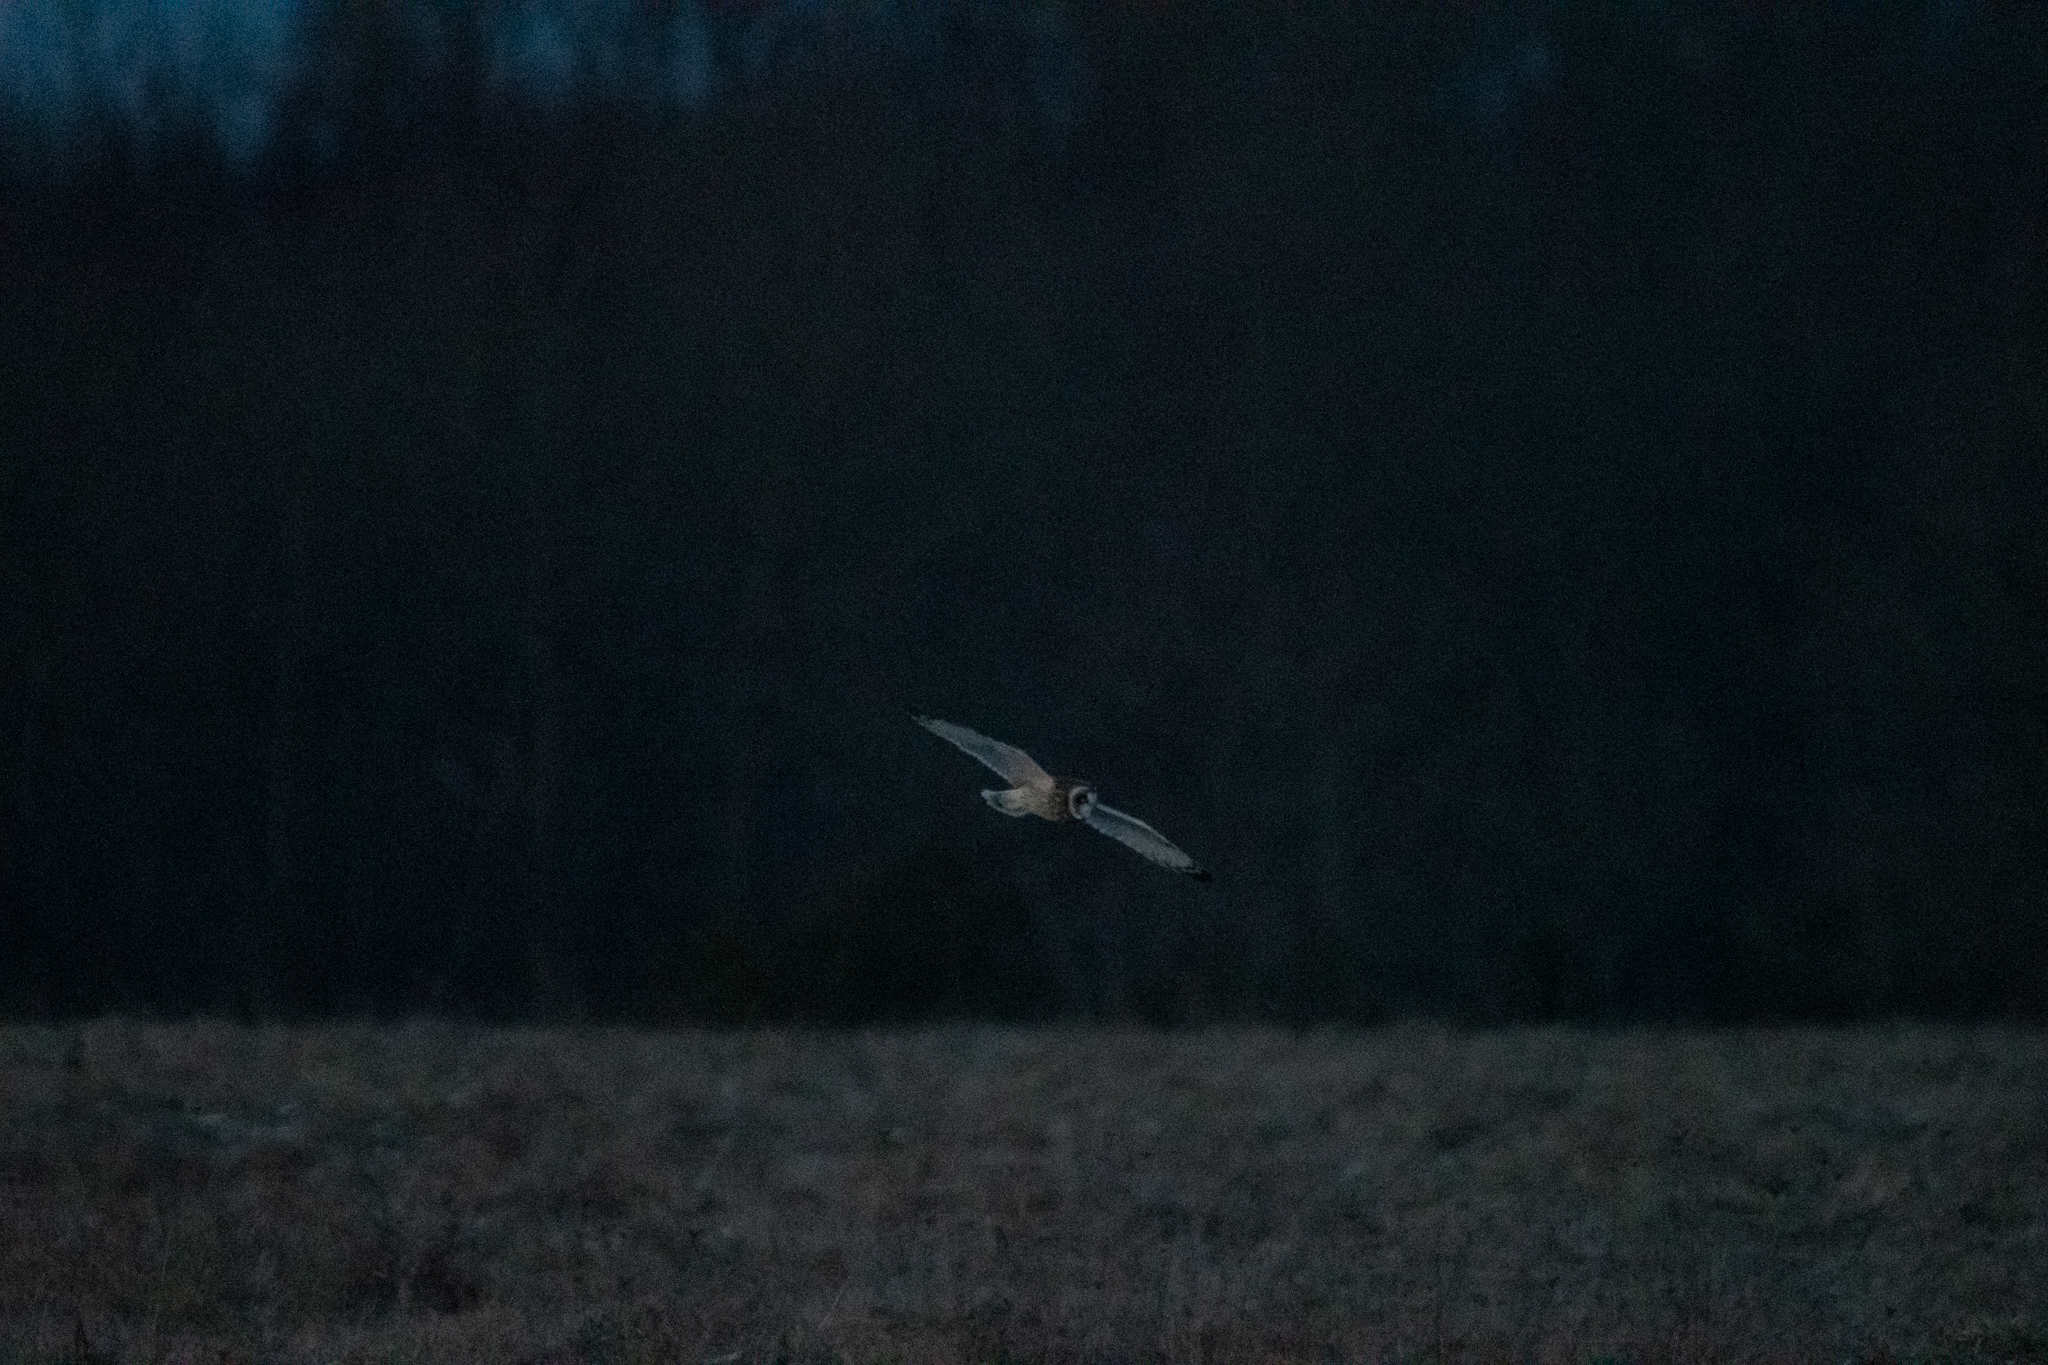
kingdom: Animalia
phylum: Chordata
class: Aves
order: Strigiformes
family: Strigidae
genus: Asio
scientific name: Asio flammeus
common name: Short-eared owl
